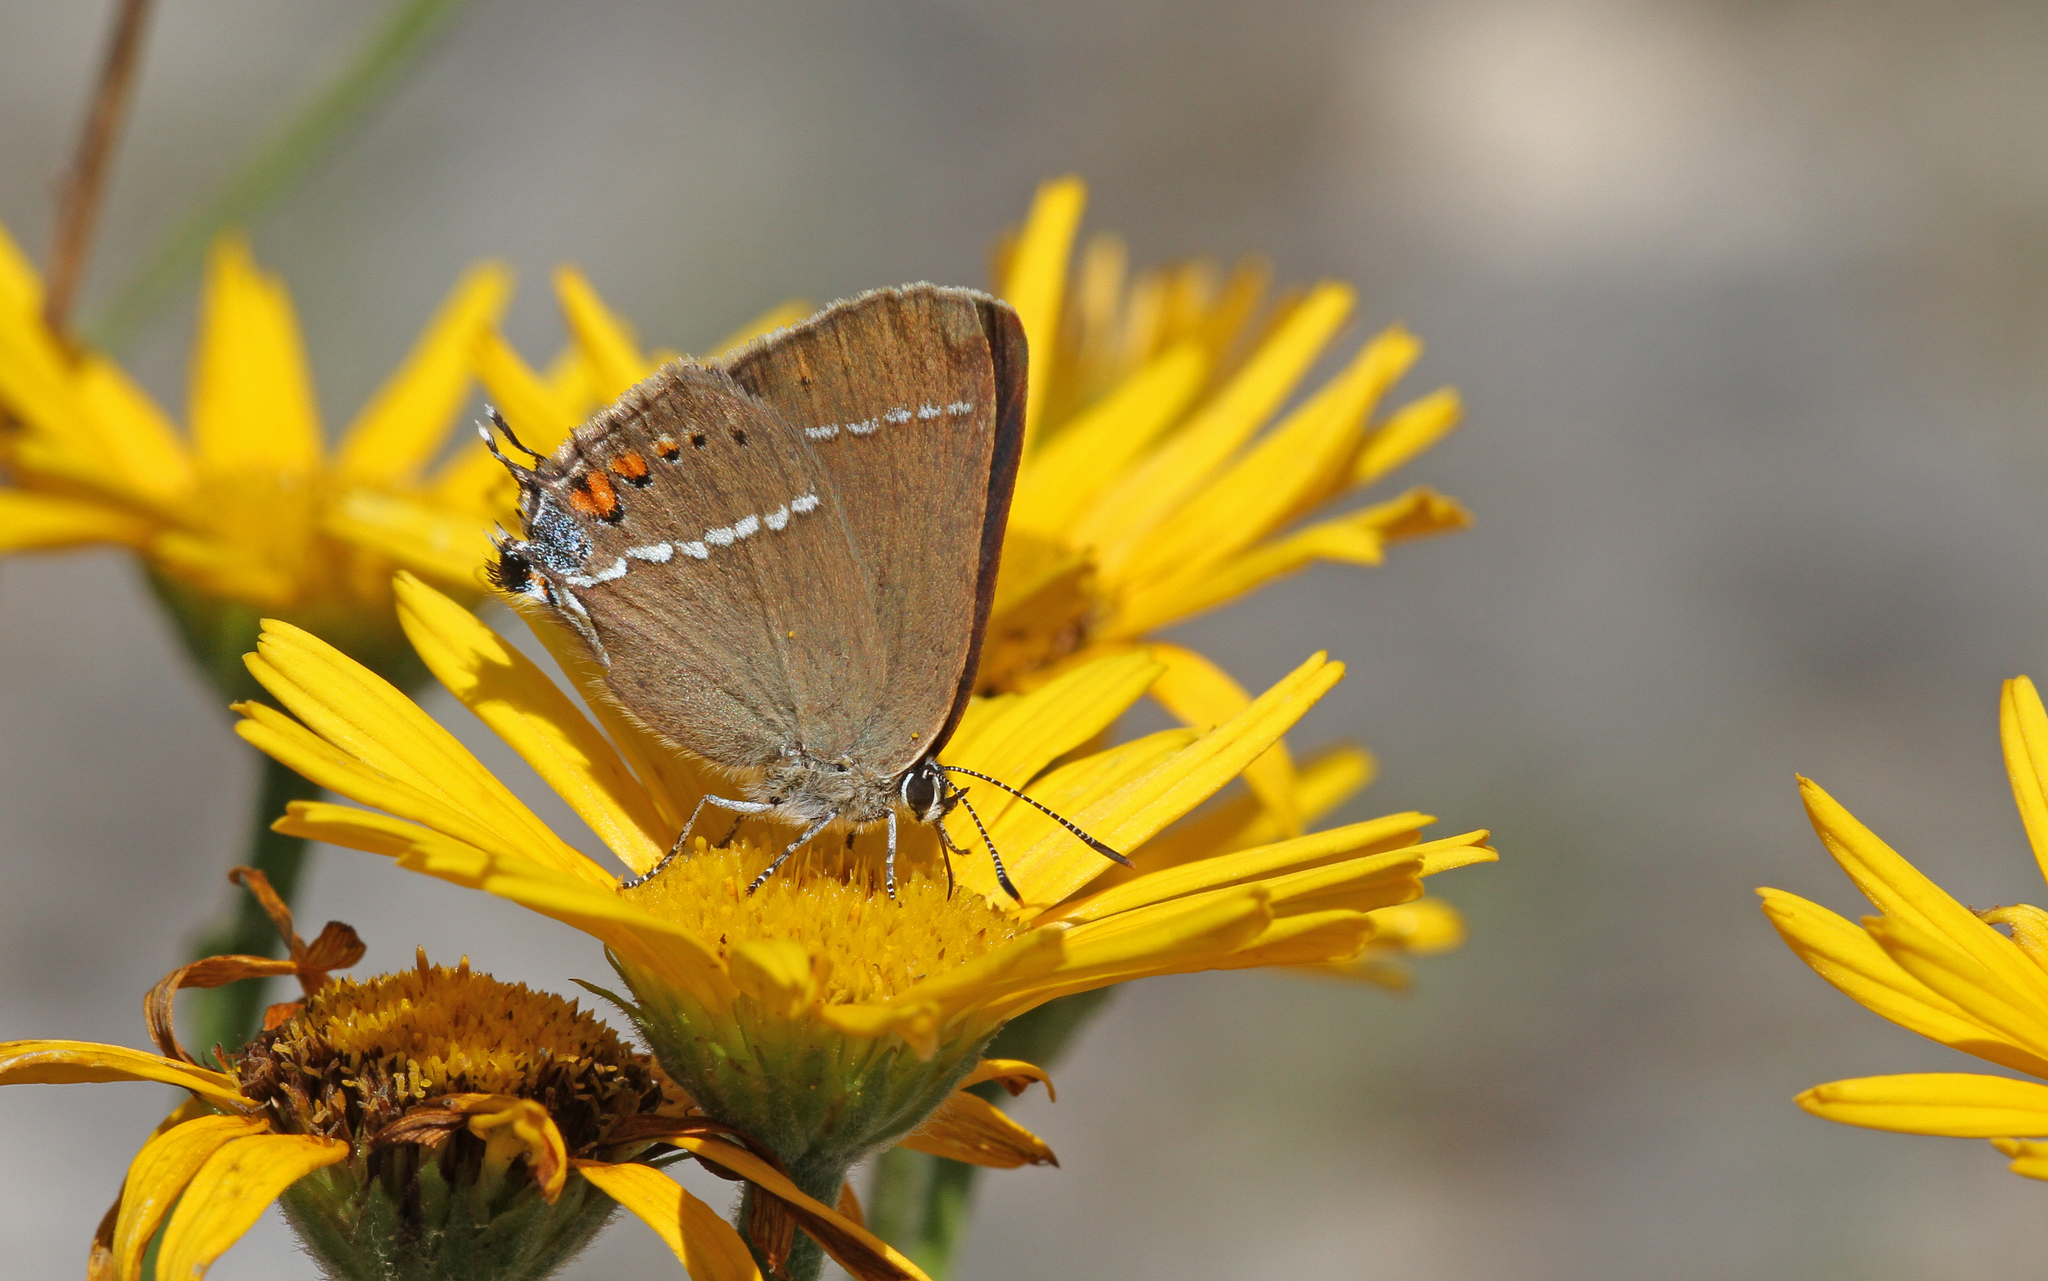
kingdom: Animalia
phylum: Arthropoda
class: Insecta
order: Lepidoptera
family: Lycaenidae
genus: Tuttiola
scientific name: Tuttiola spini
